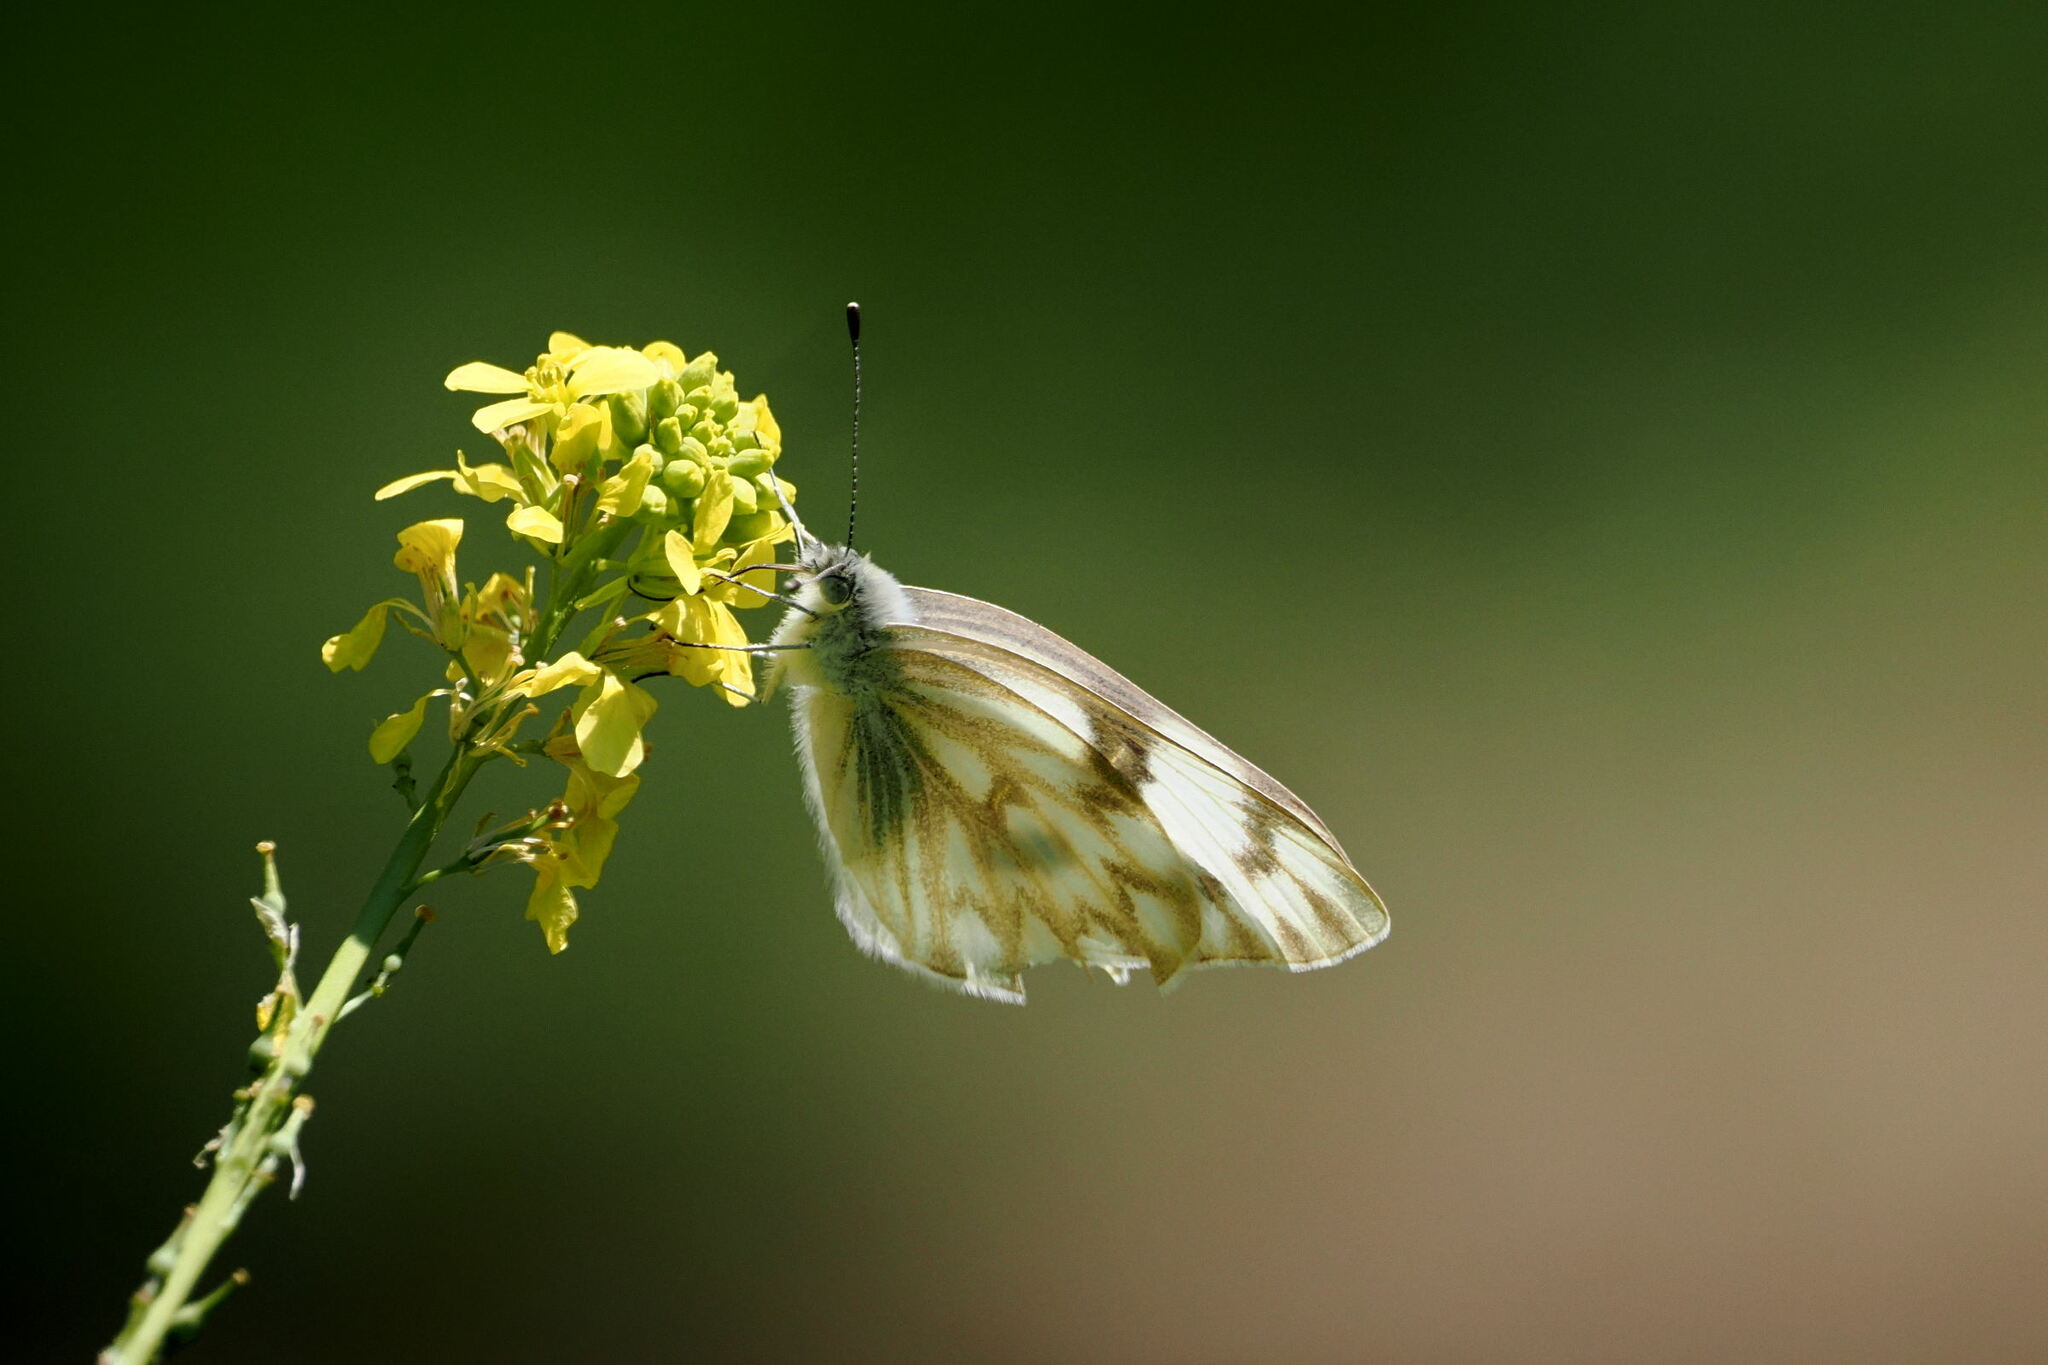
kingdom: Animalia
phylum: Arthropoda
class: Insecta
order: Lepidoptera
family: Pieridae
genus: Pontia
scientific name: Pontia protodice
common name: Checkered white
